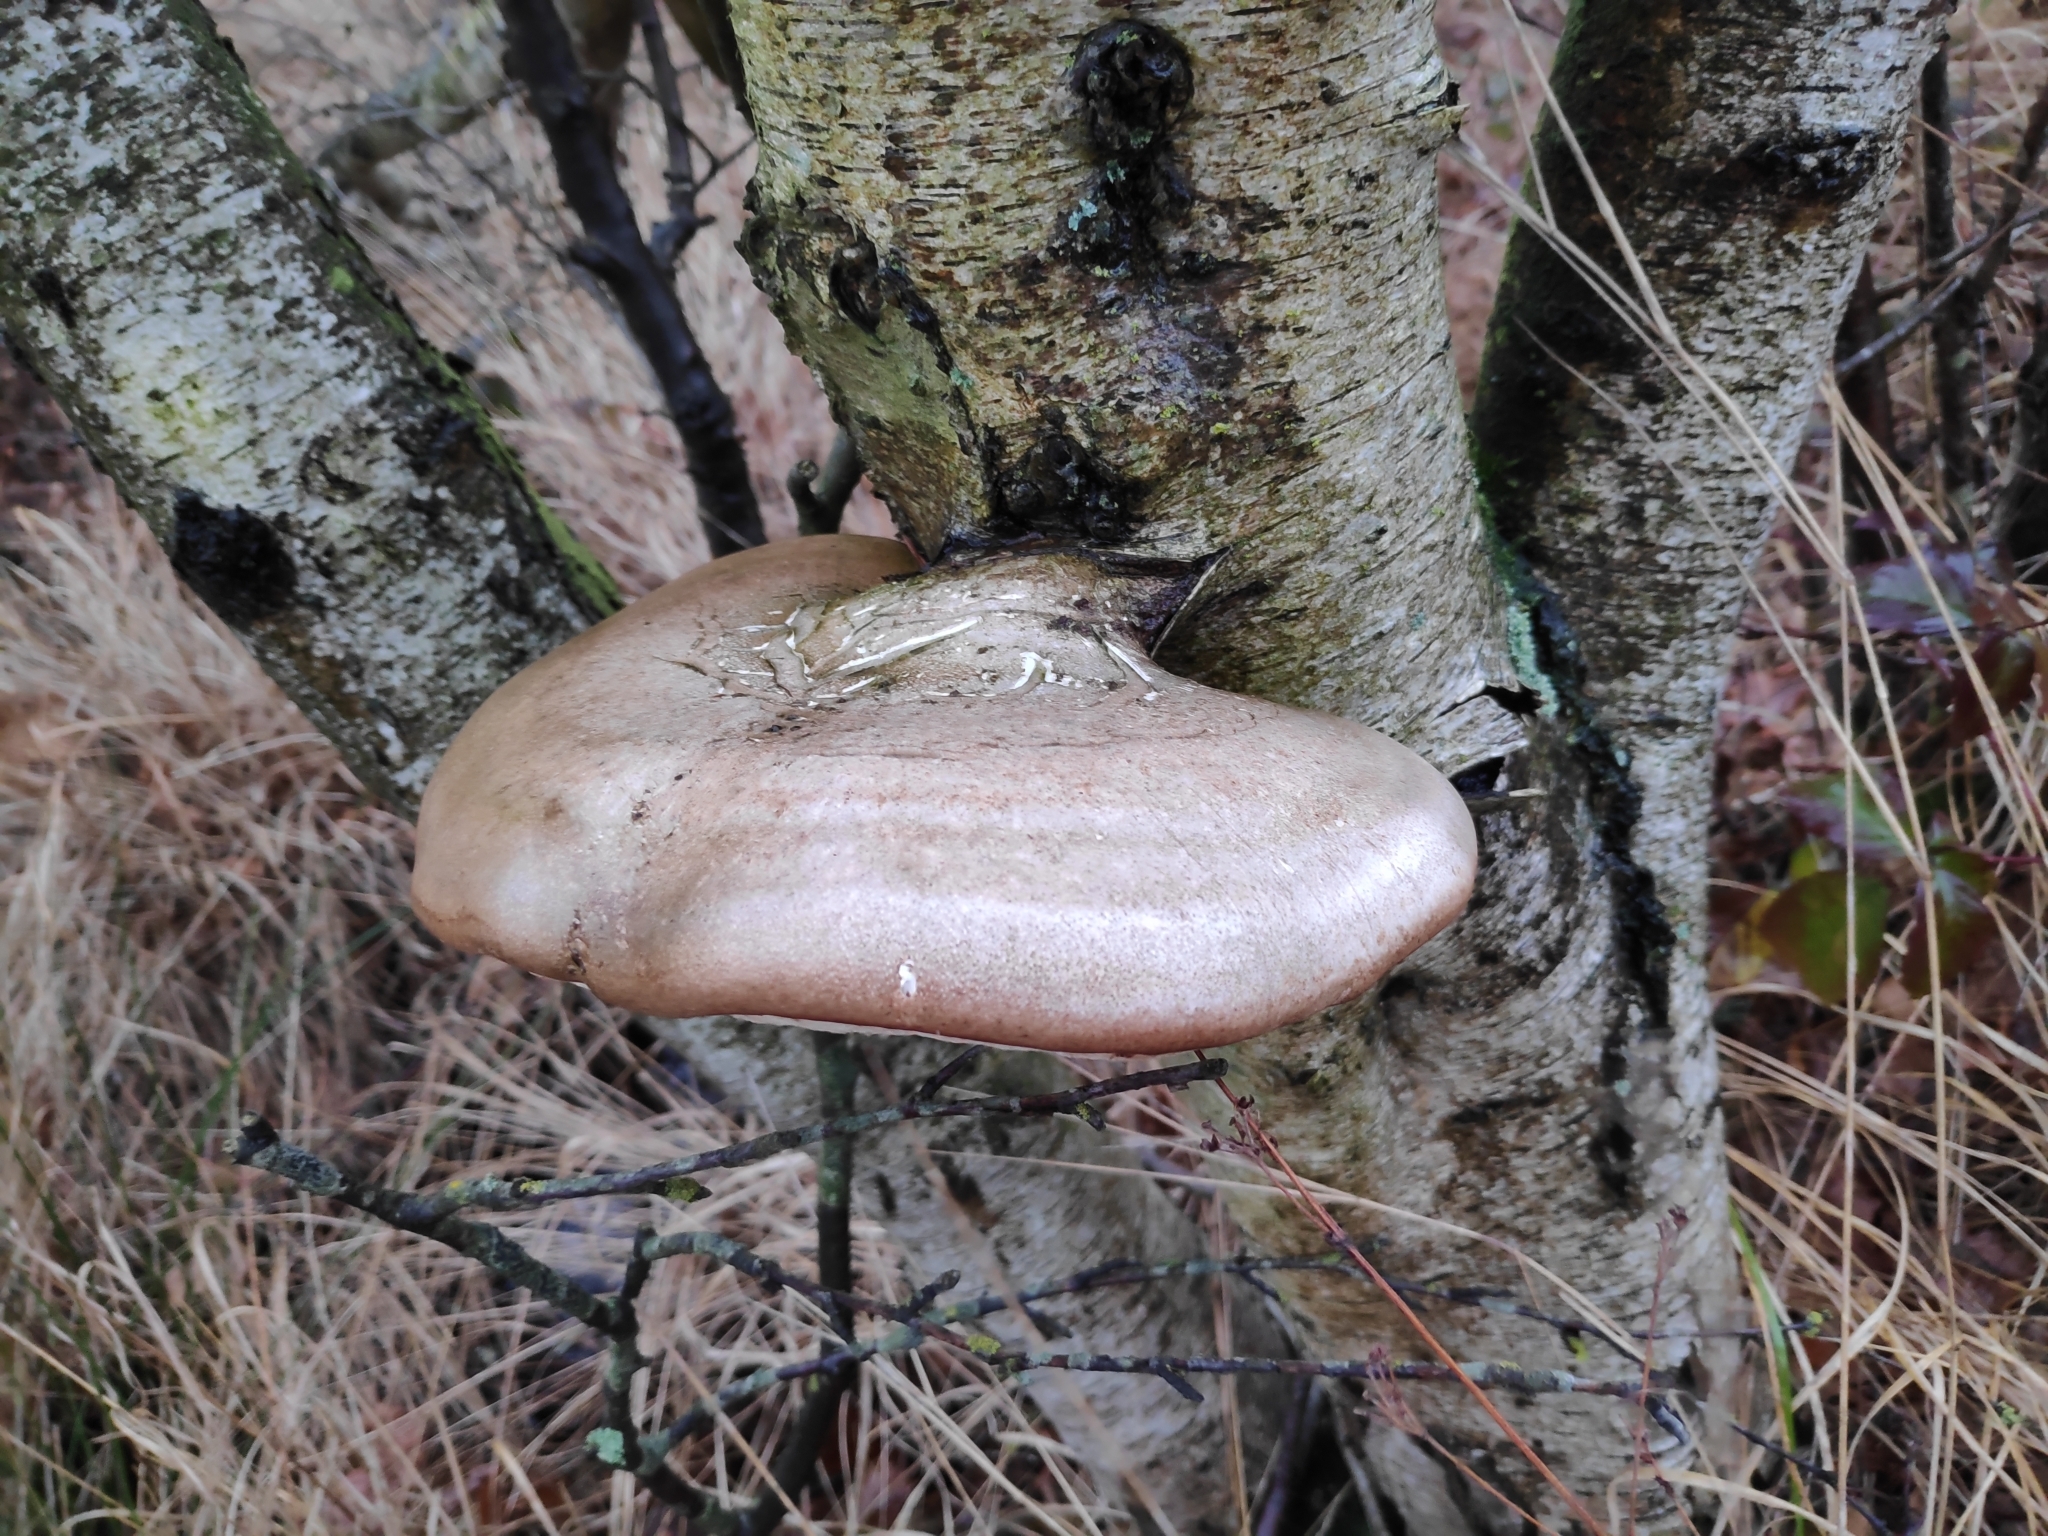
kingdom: Fungi
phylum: Basidiomycota
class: Agaricomycetes
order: Polyporales
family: Fomitopsidaceae
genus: Fomitopsis
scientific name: Fomitopsis betulina
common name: Birch polypore
